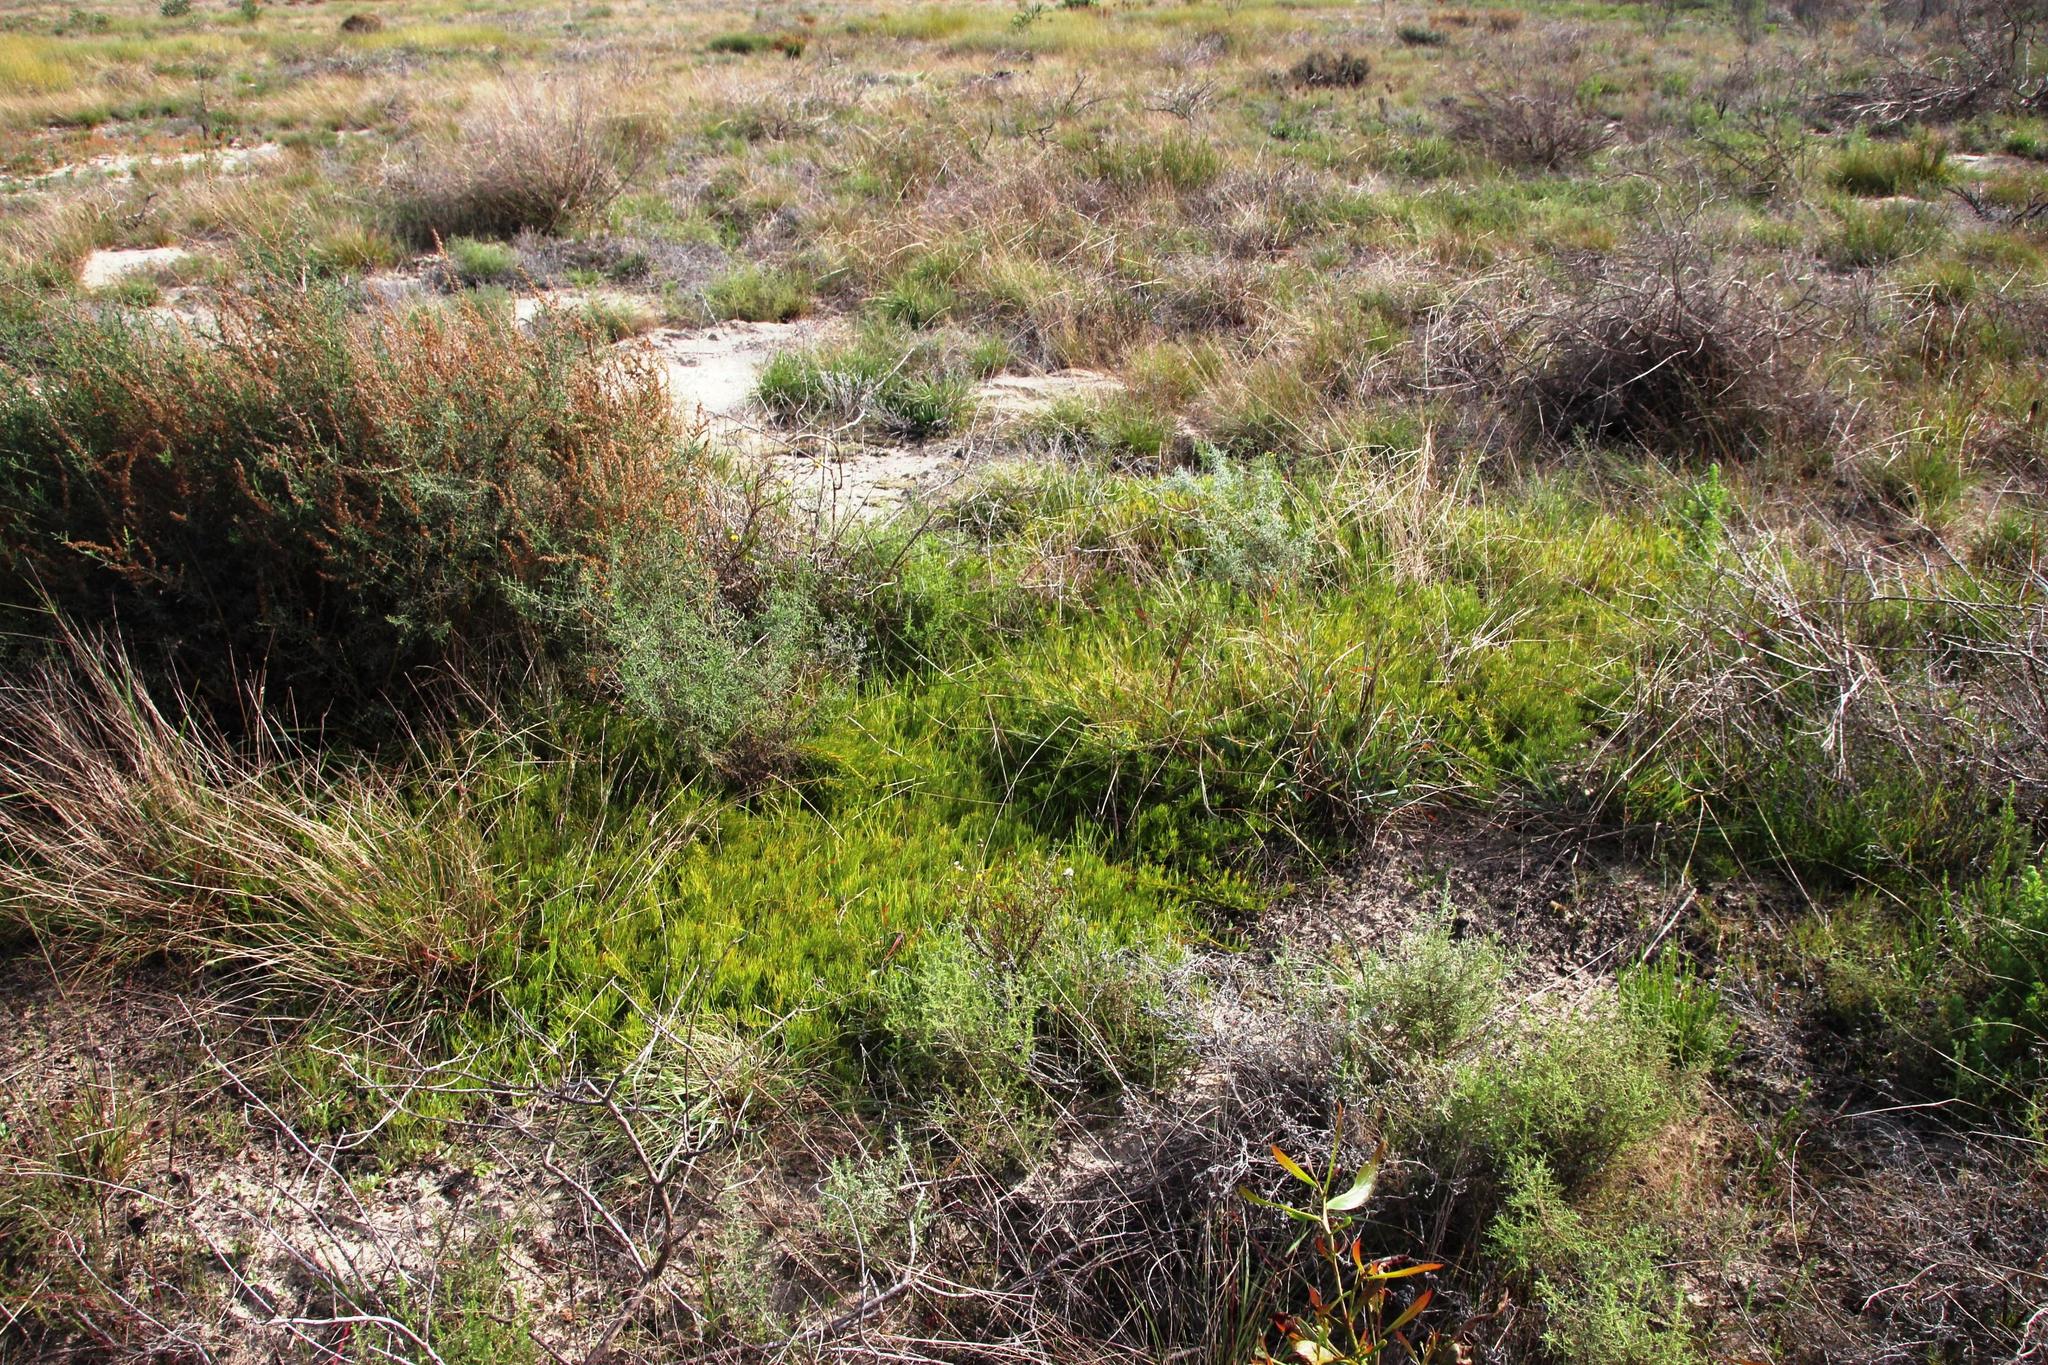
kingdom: Plantae
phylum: Tracheophyta
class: Magnoliopsida
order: Proteales
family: Proteaceae
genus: Diastella
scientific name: Diastella buekii
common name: Franschhoek silkypuff
